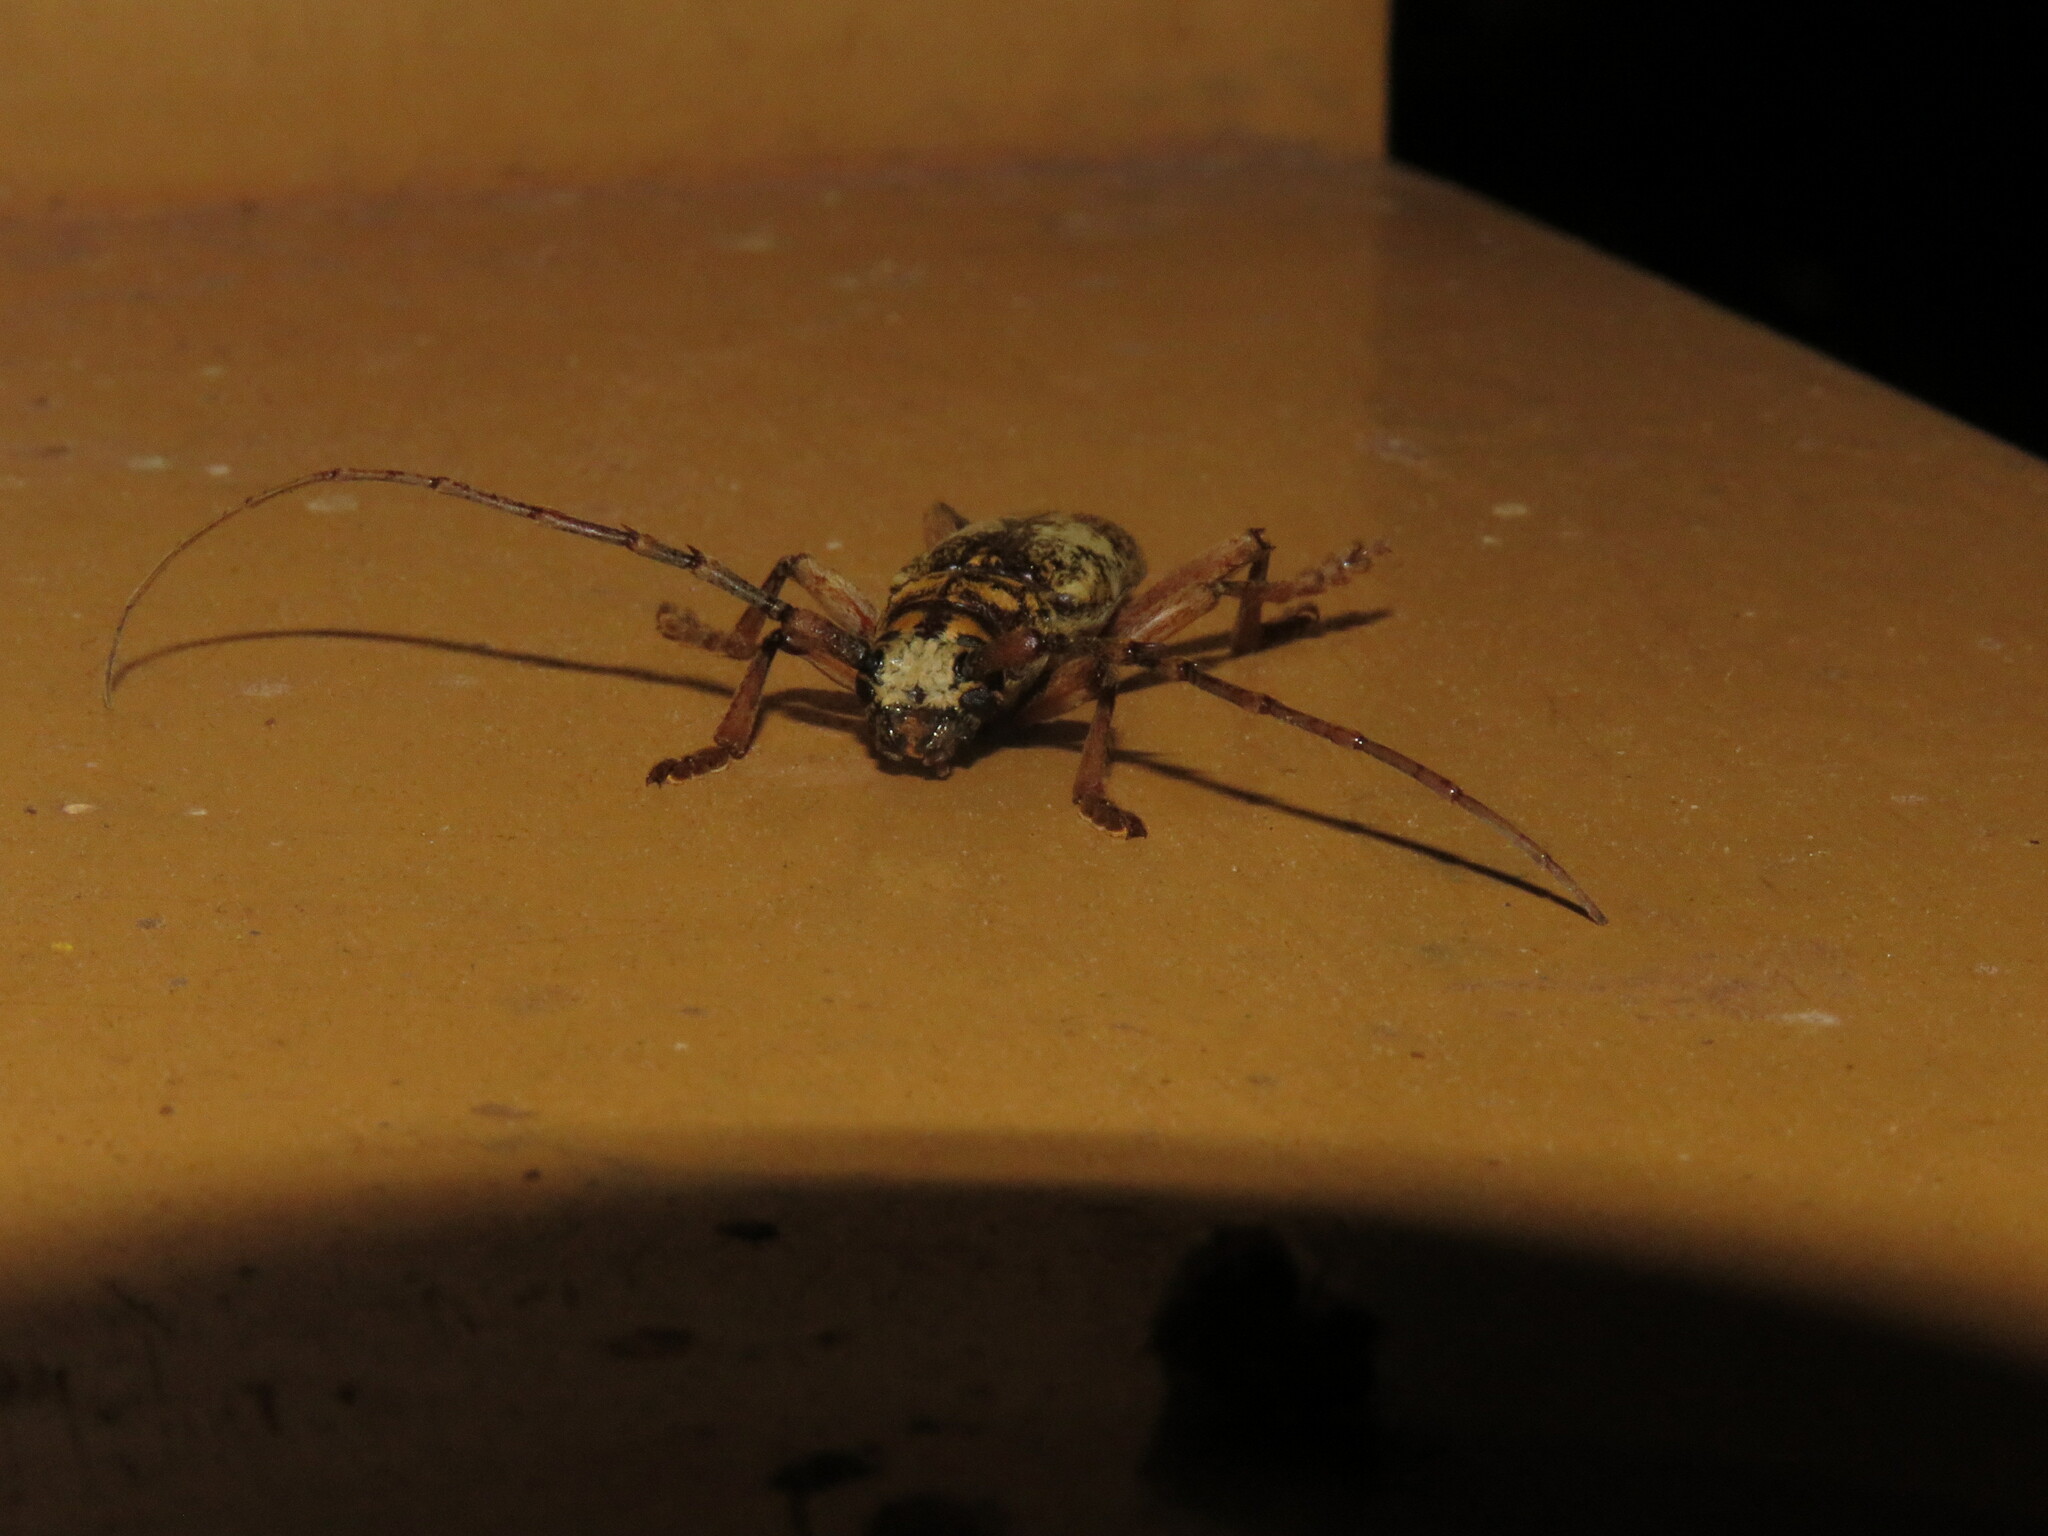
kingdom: Animalia
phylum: Arthropoda
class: Insecta
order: Coleoptera
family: Cerambycidae
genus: Lanephus
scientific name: Lanephus njumanii
